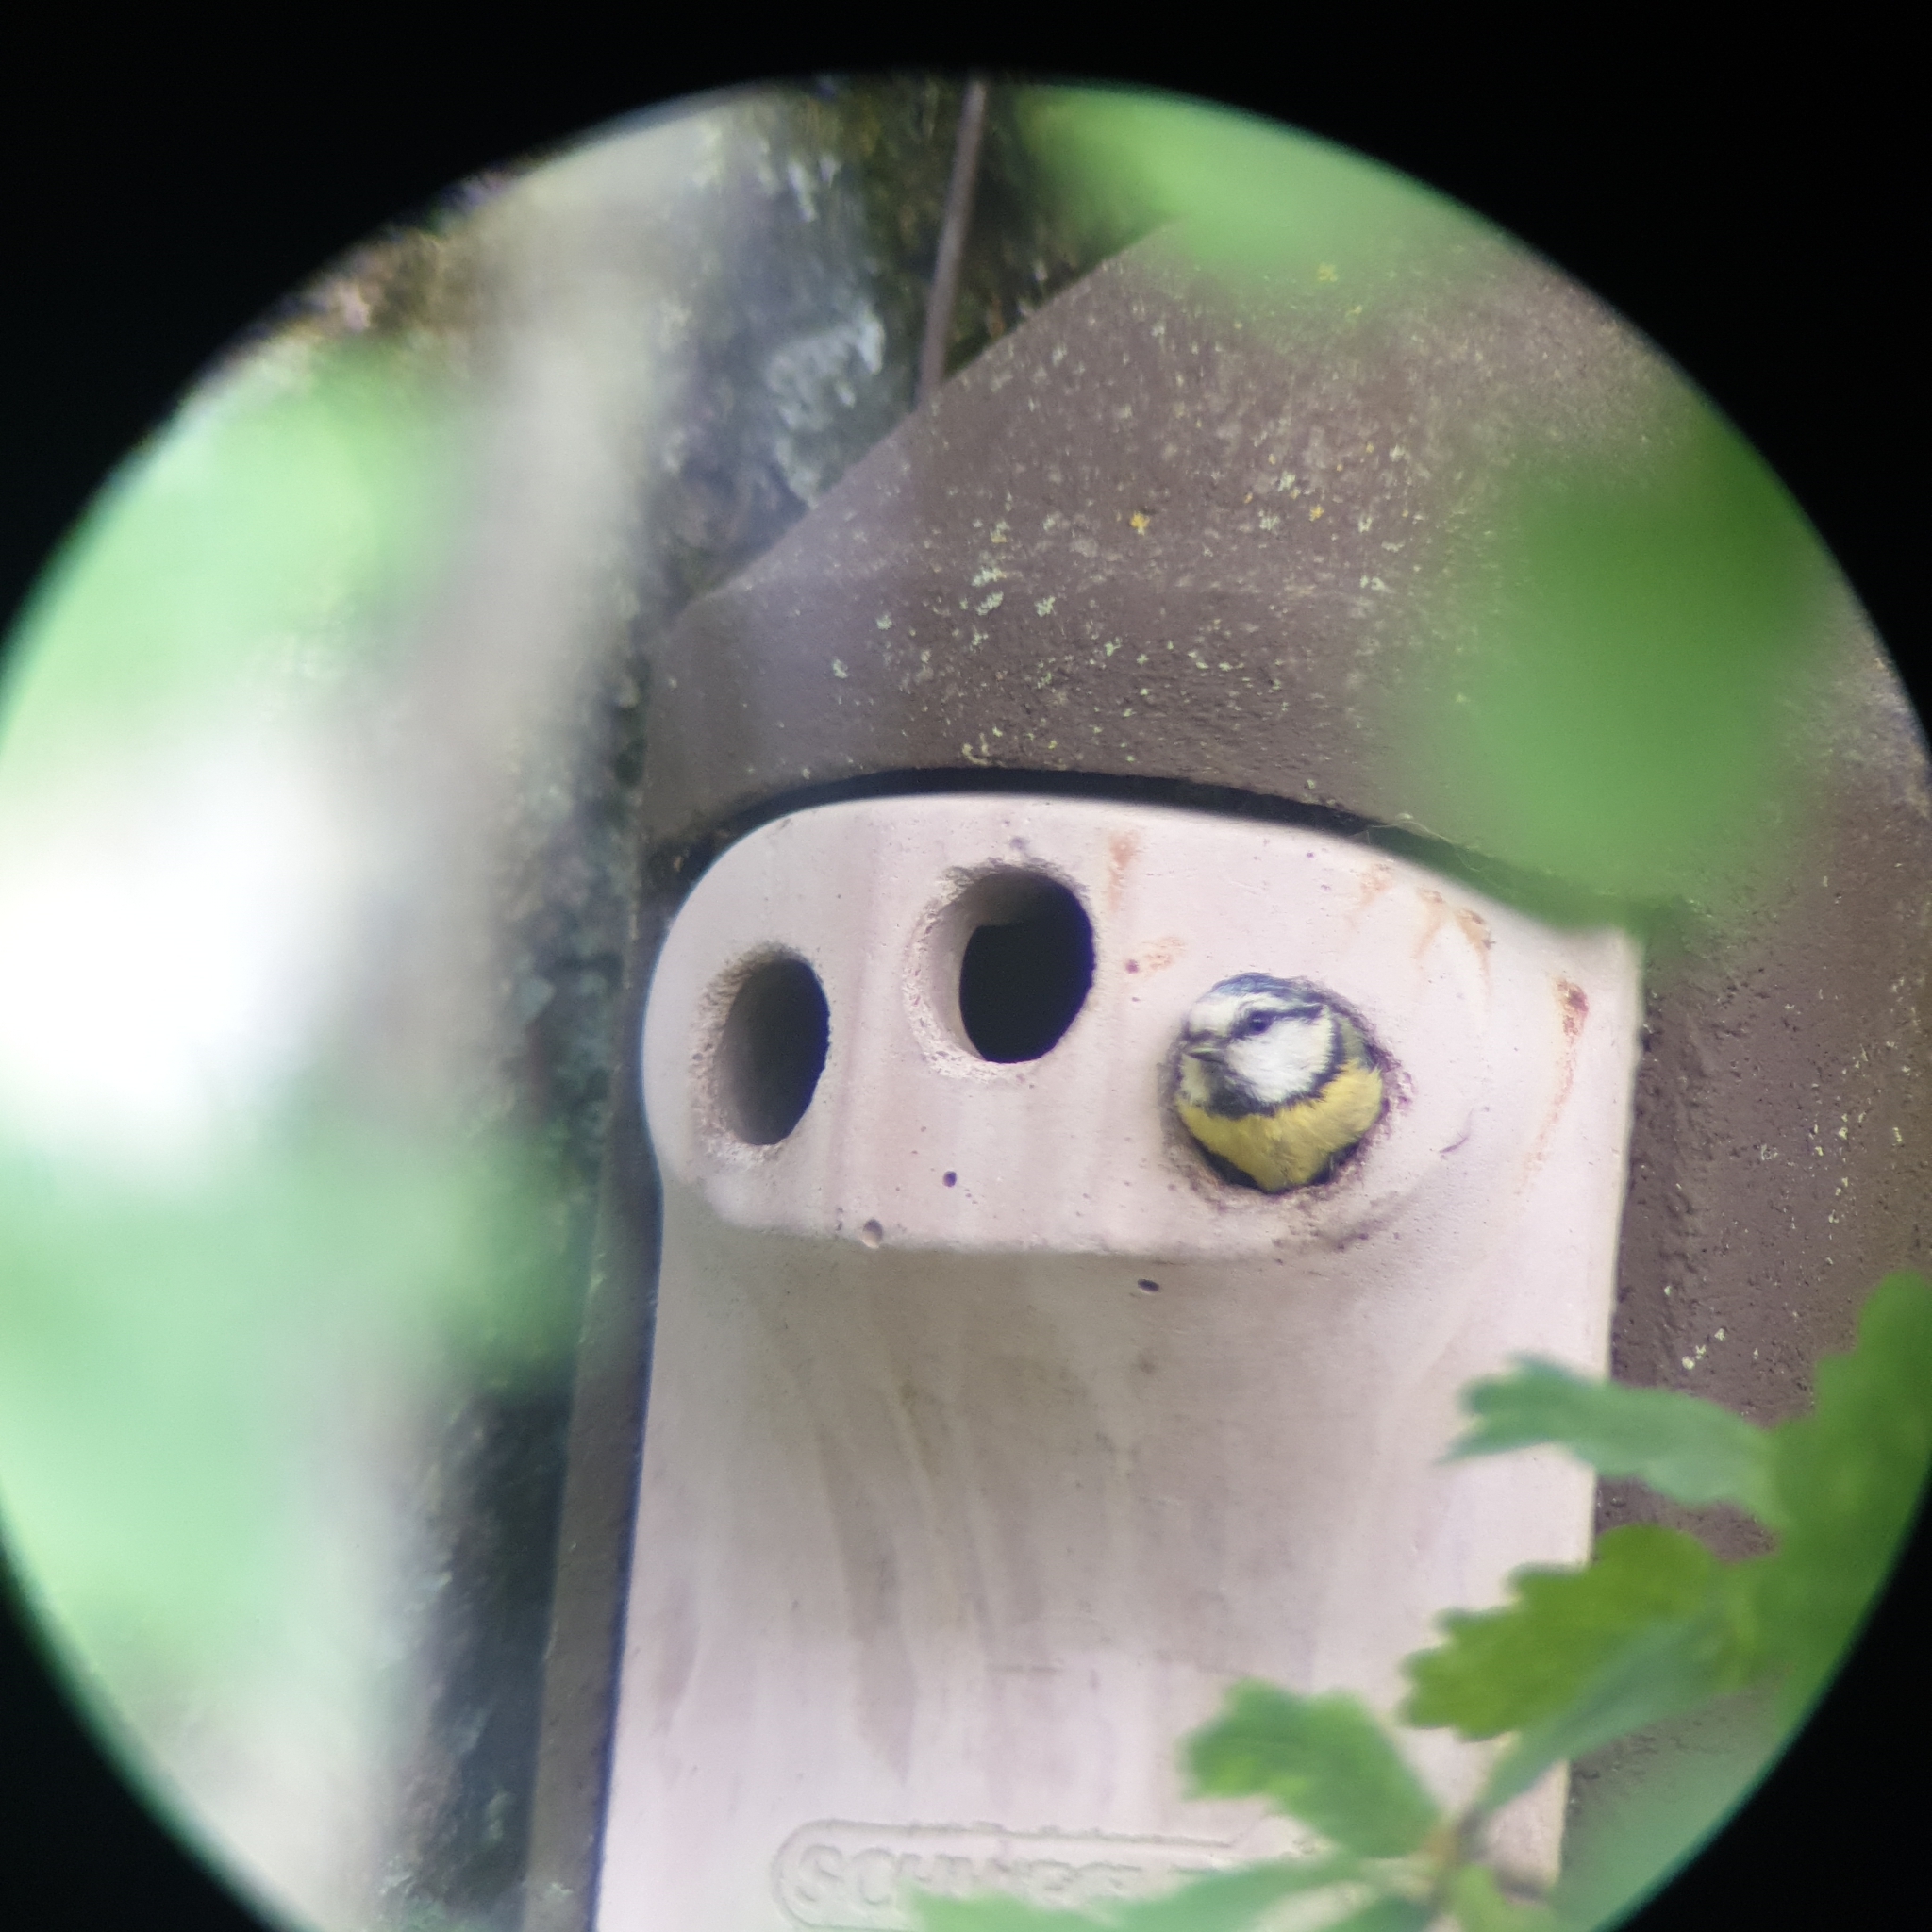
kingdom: Animalia
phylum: Chordata
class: Aves
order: Passeriformes
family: Paridae
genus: Cyanistes
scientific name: Cyanistes caeruleus
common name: Eurasian blue tit
